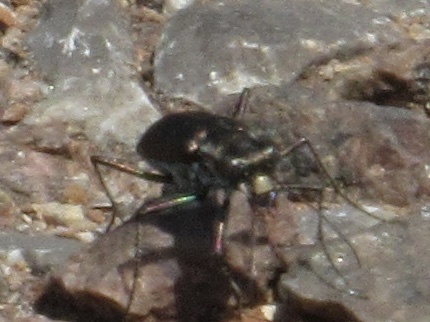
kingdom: Animalia
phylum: Arthropoda
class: Insecta
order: Coleoptera
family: Carabidae
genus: Cicindela
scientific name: Cicindela punctulata
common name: Punctured tiger beetle
